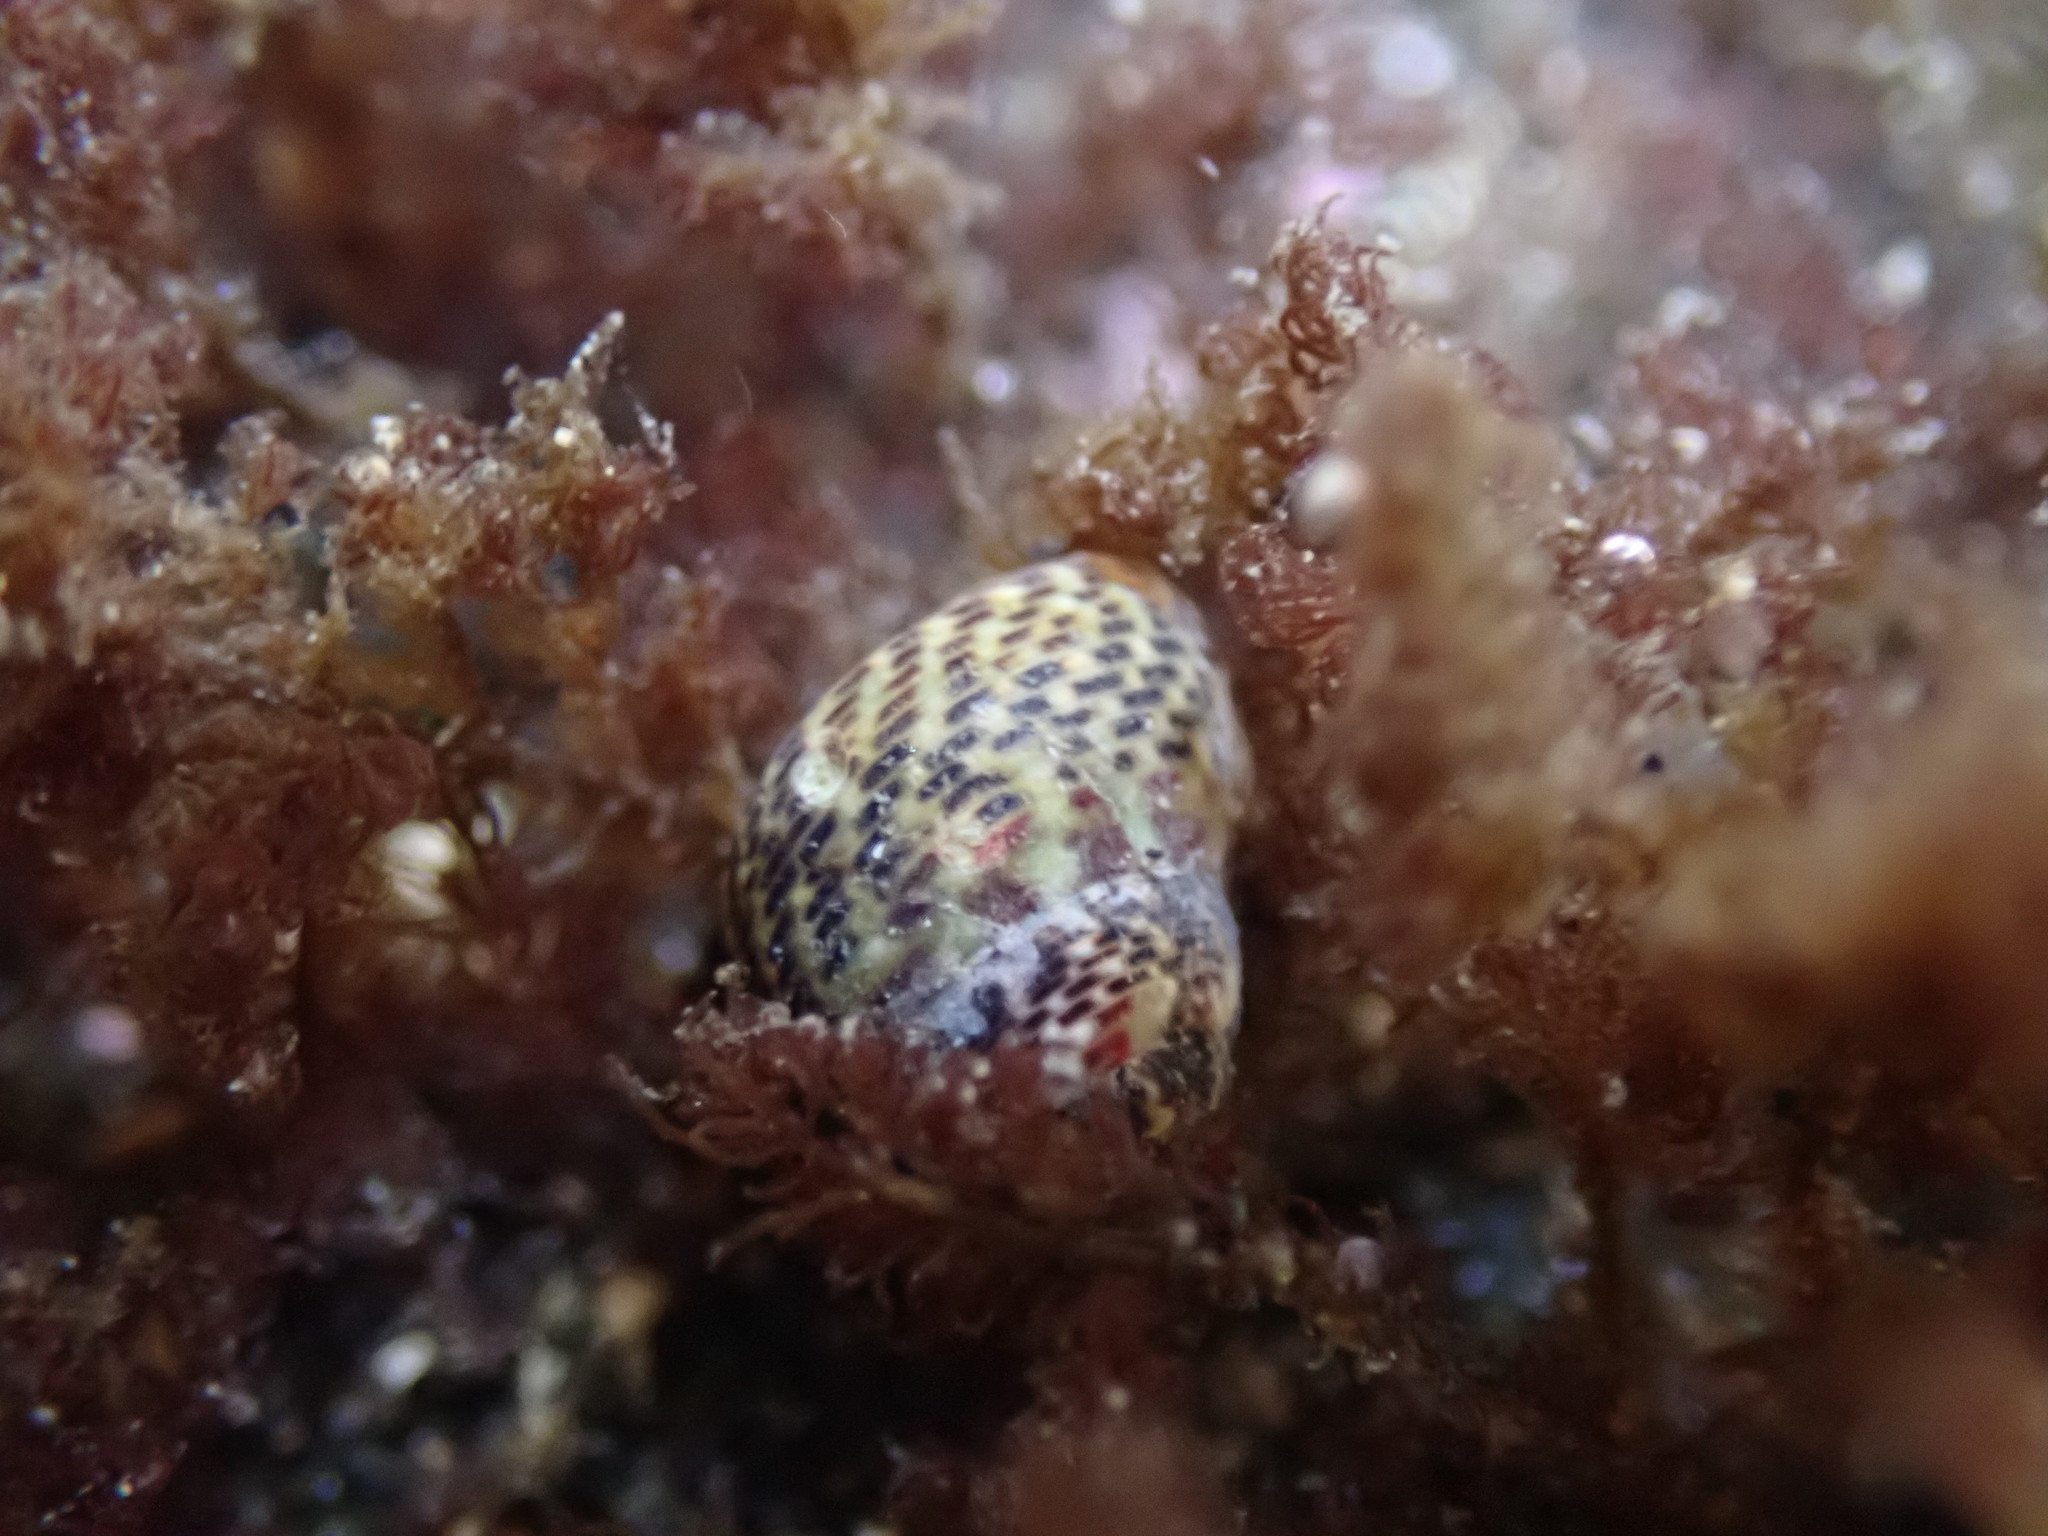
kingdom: Animalia
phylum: Mollusca
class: Gastropoda
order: Trochida
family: Trochidae
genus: Micrelenchus
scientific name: Micrelenchus tessellatus
